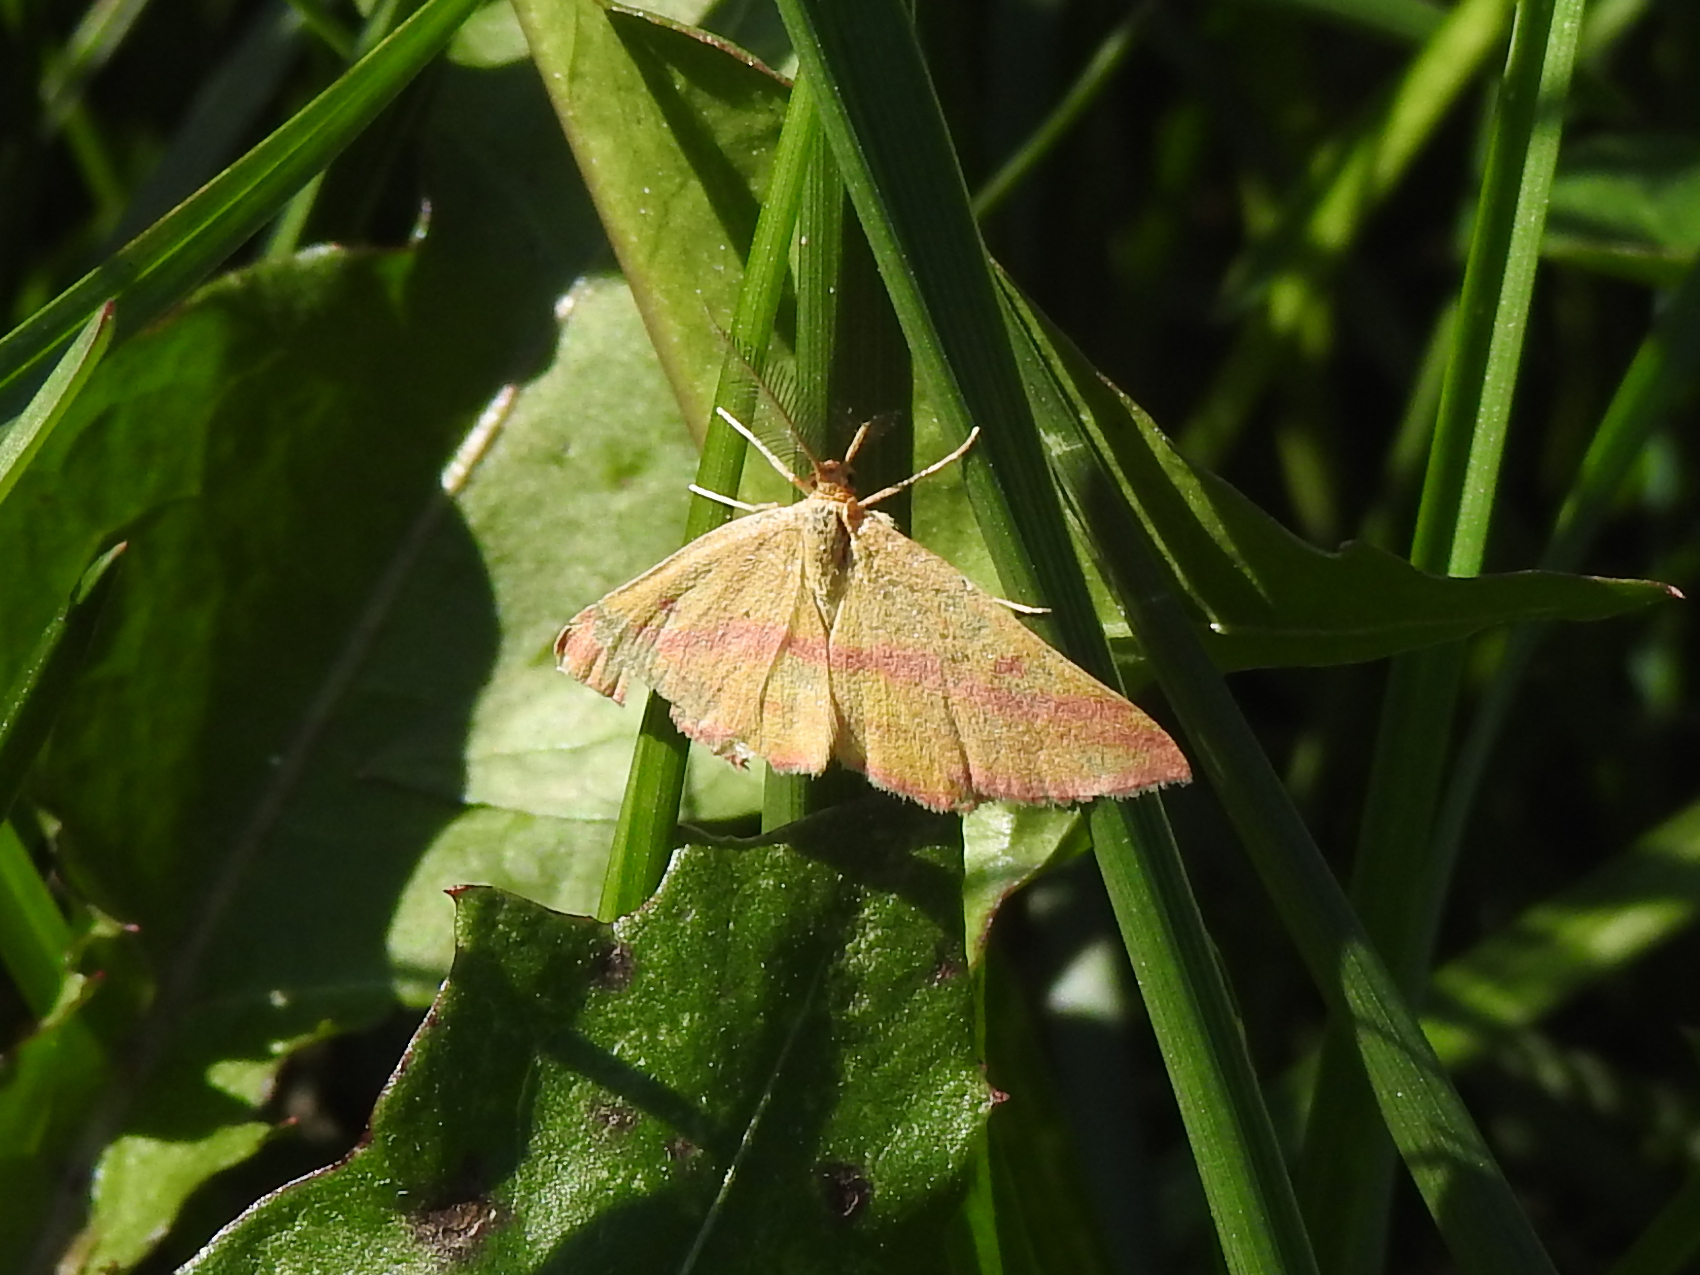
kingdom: Animalia
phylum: Arthropoda
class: Insecta
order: Lepidoptera
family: Geometridae
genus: Haematopis
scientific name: Haematopis grataria
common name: Chickweed geometer
